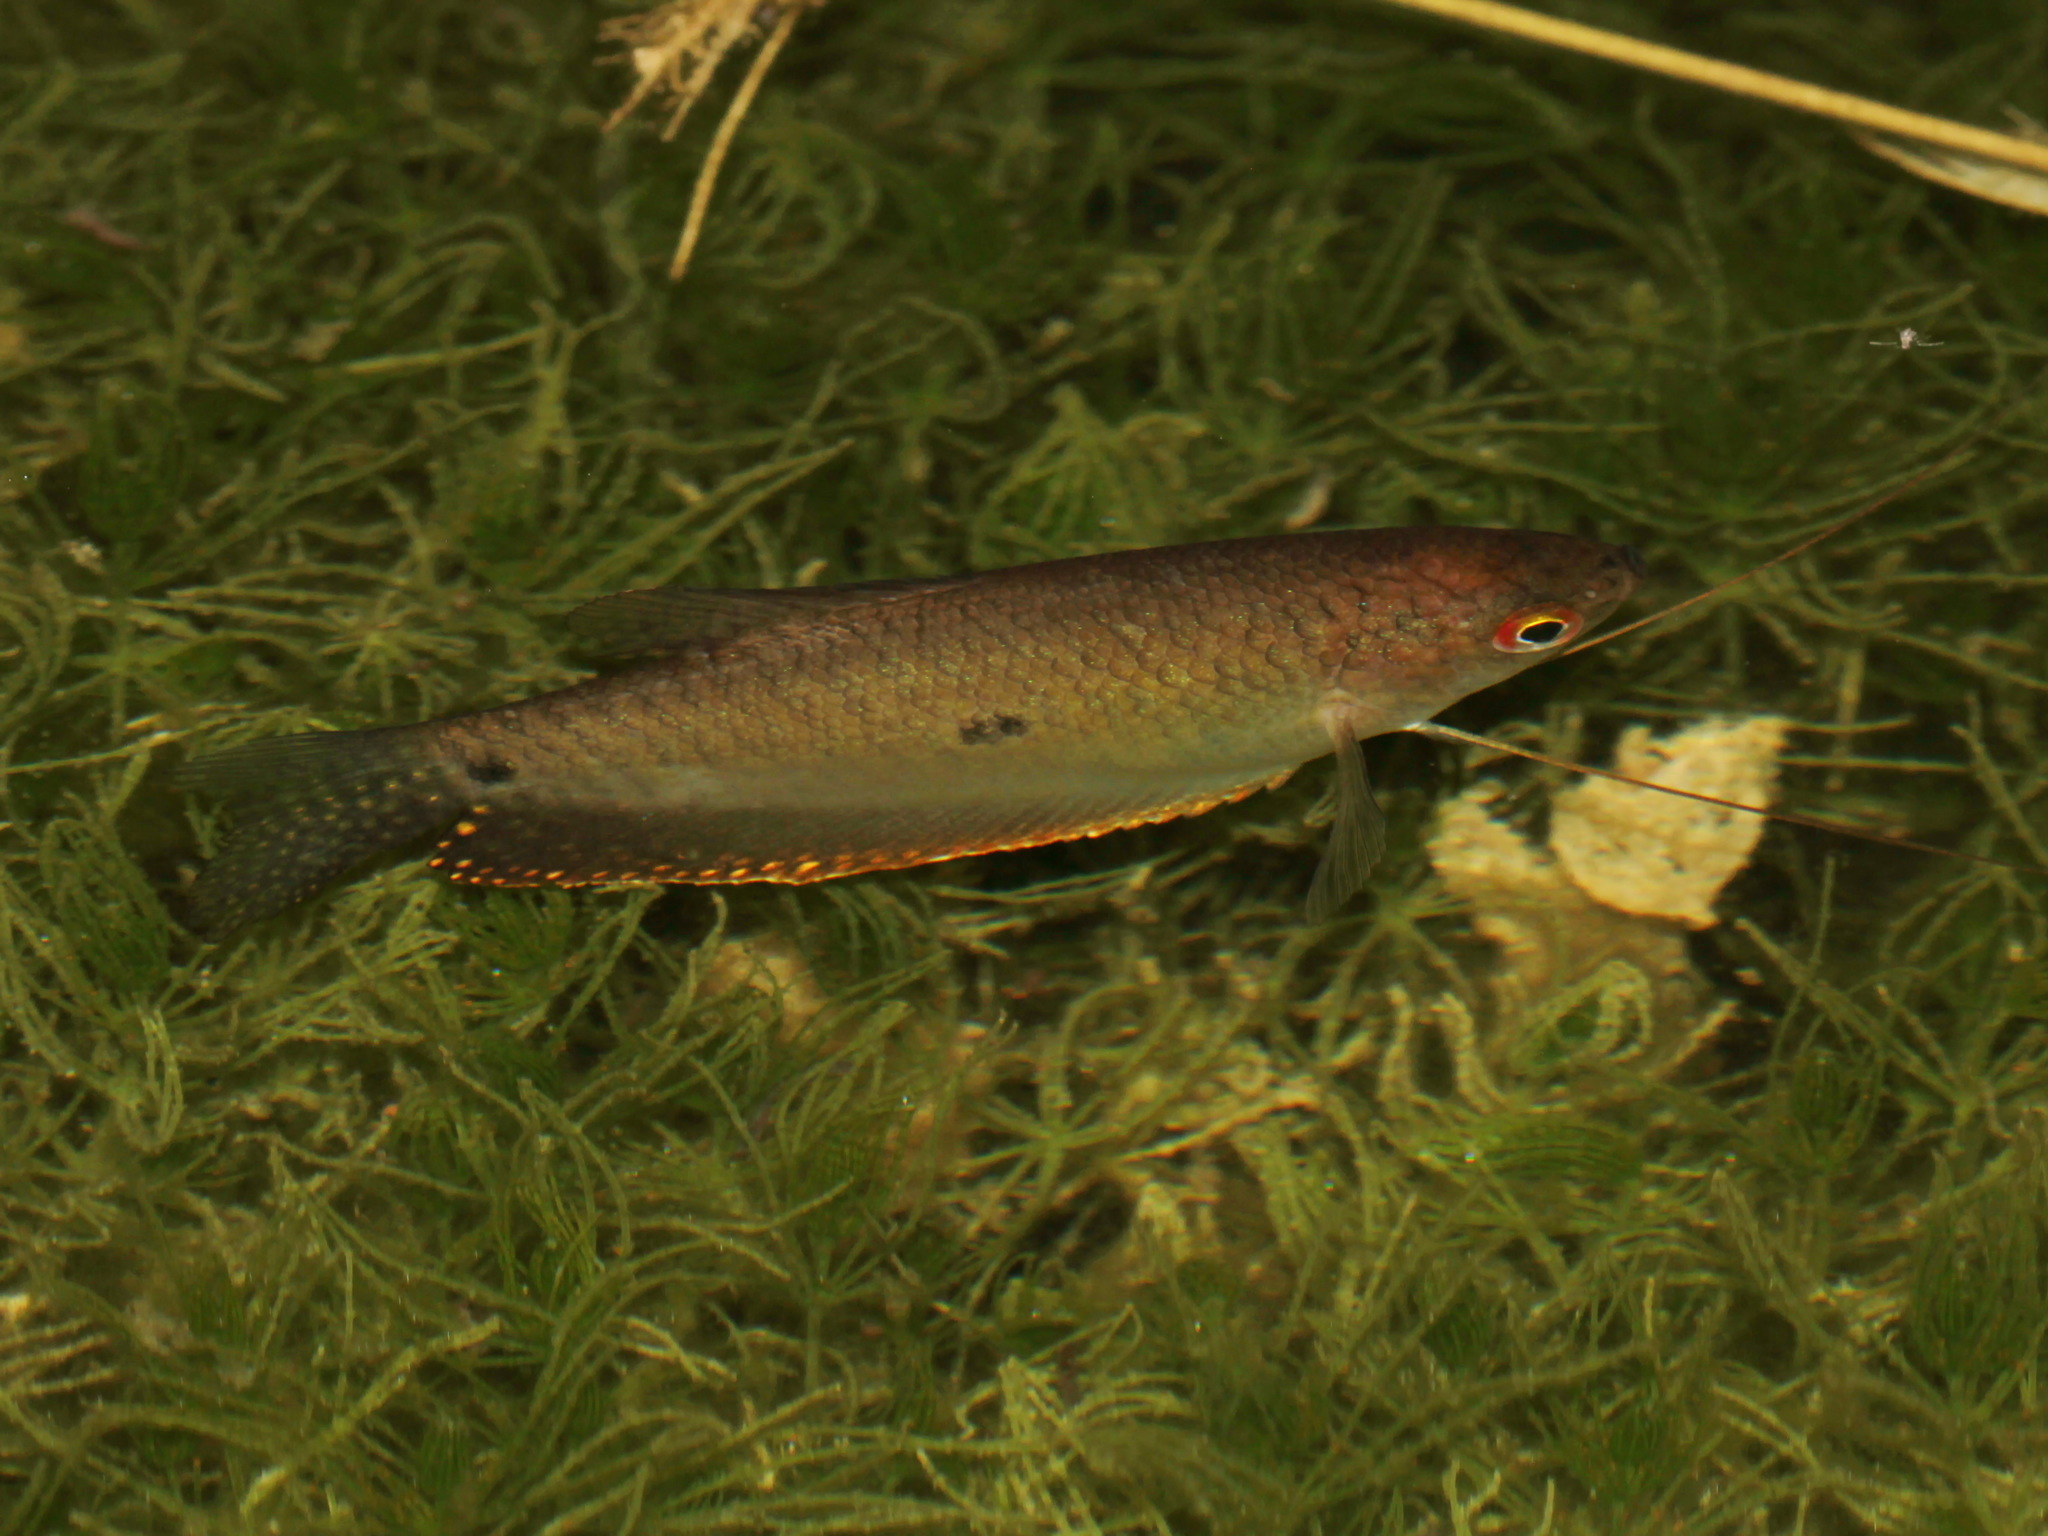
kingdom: Animalia
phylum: Chordata
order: Perciformes
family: Osphronemidae
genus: Trichopodus
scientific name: Trichopodus trichopterus
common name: Blue gourami
